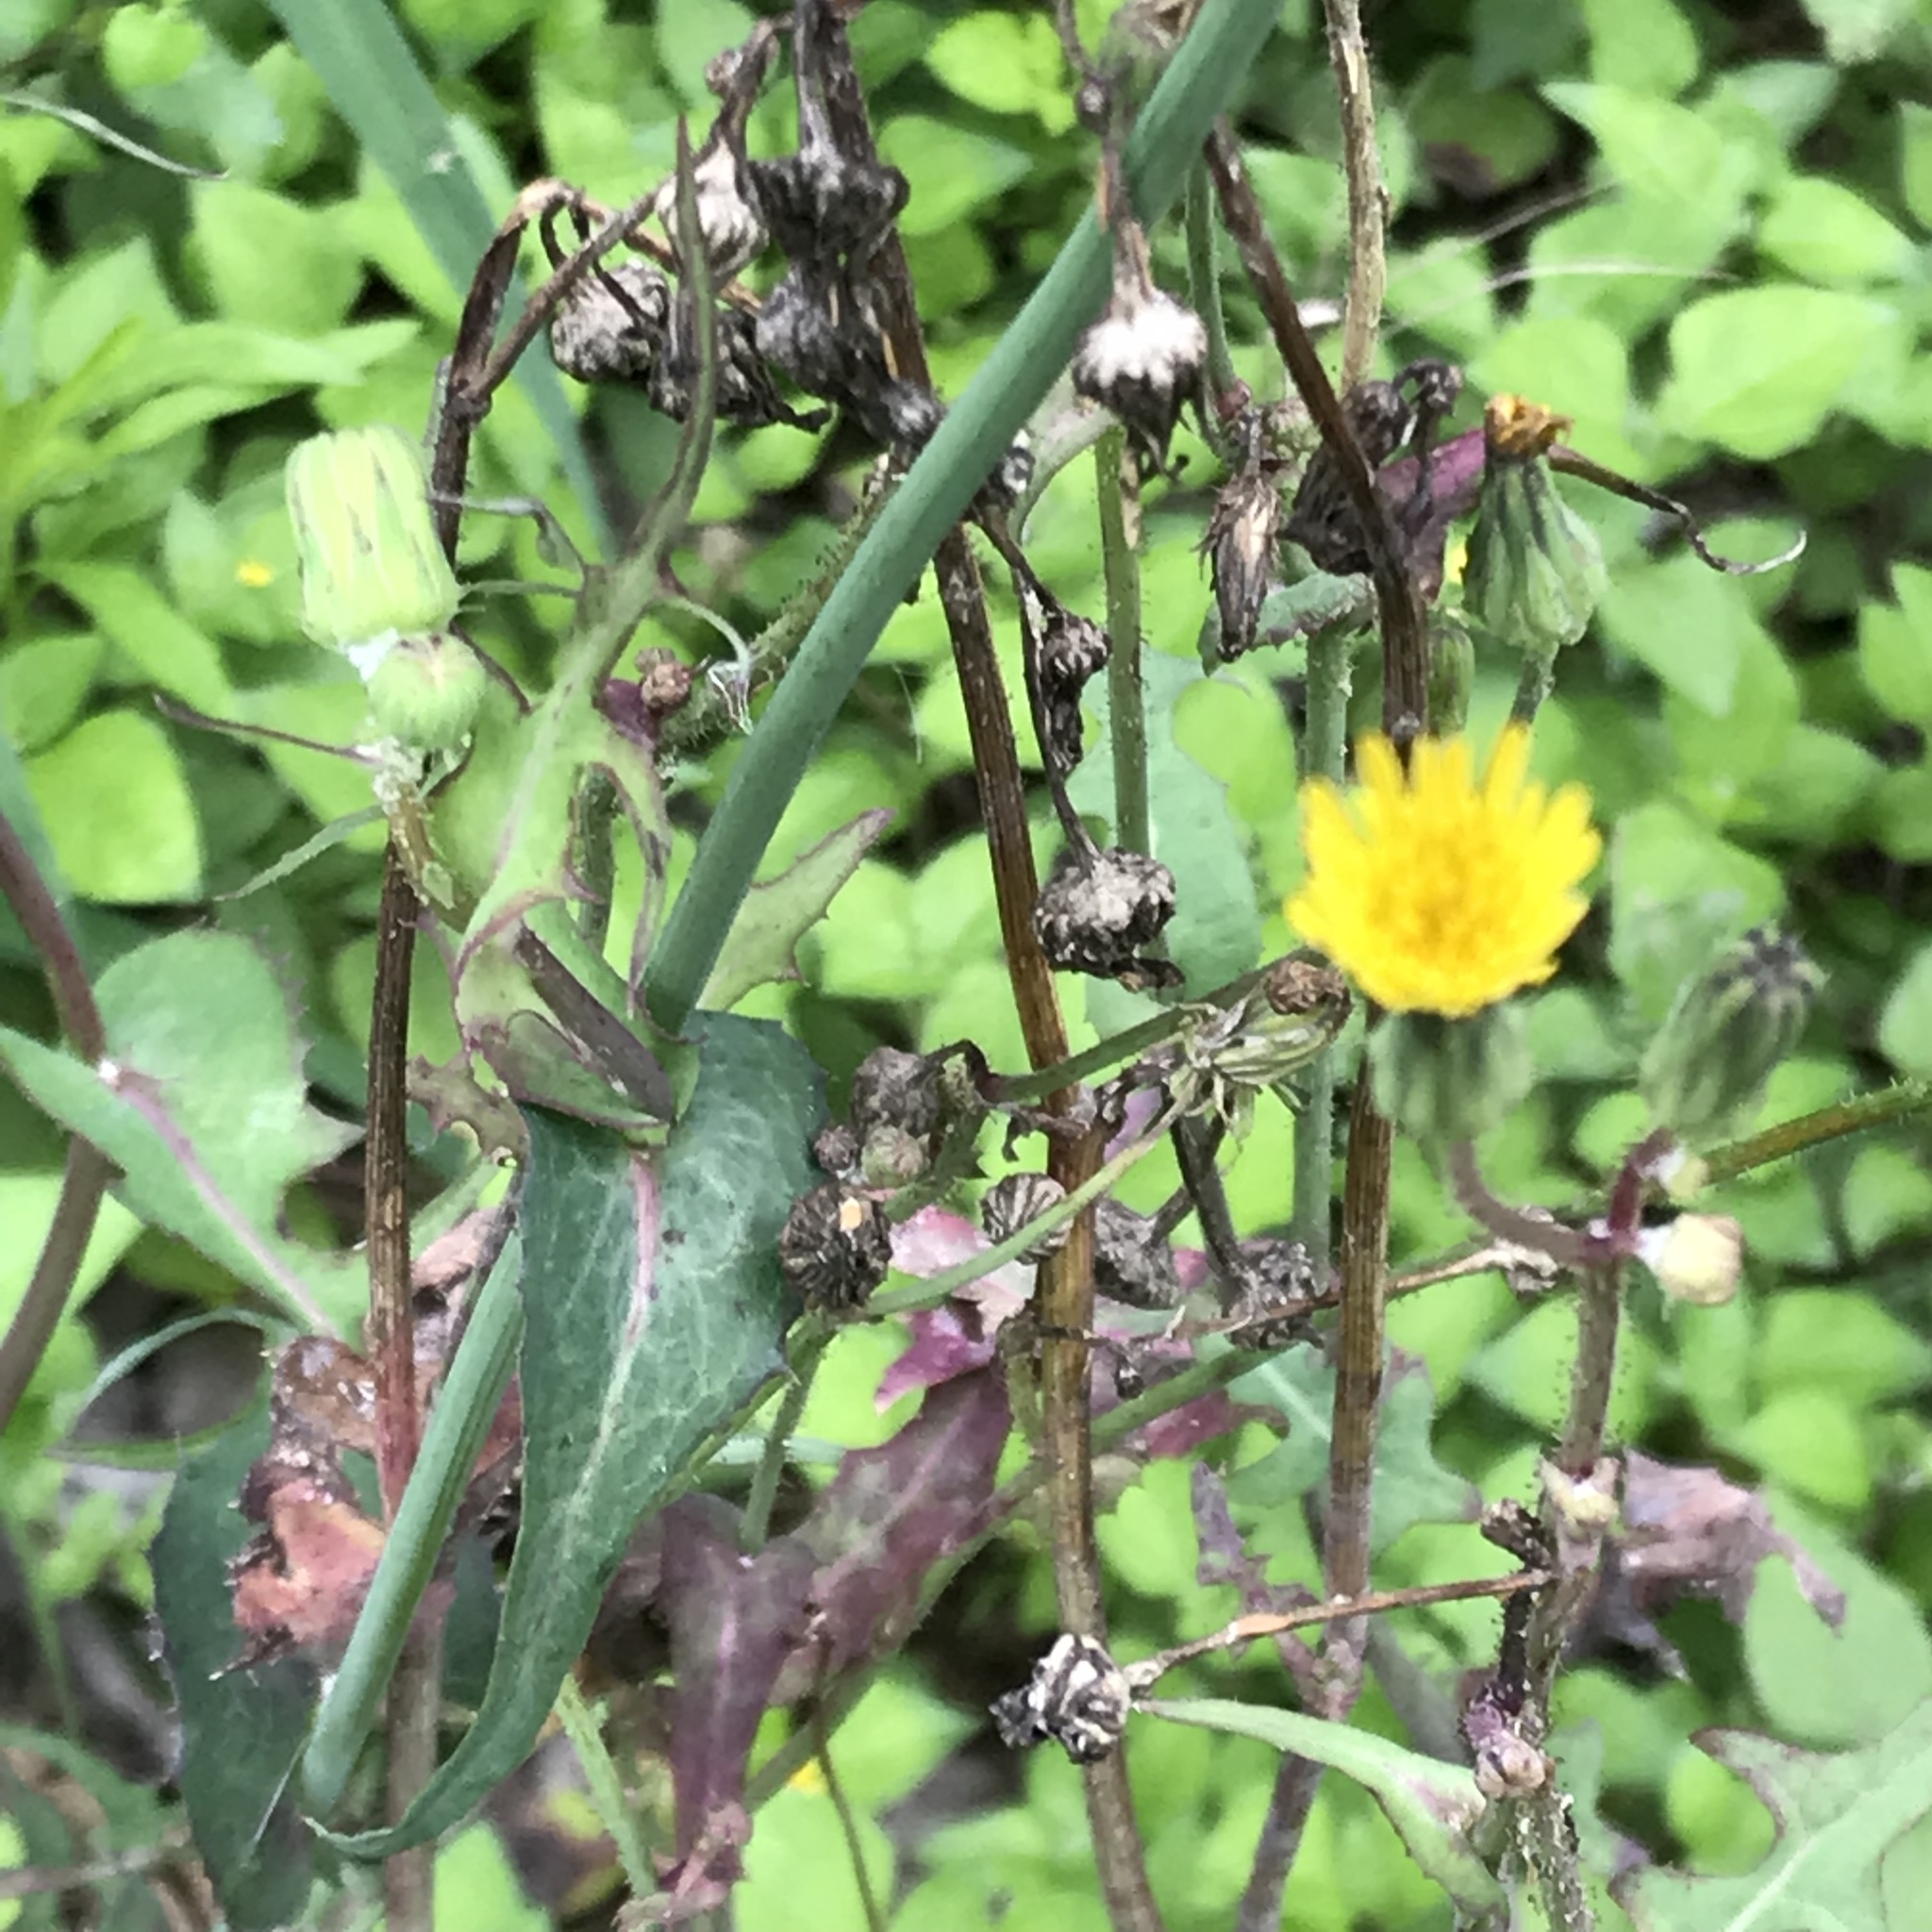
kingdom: Plantae
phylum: Tracheophyta
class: Magnoliopsida
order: Asterales
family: Asteraceae
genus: Sonchus
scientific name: Sonchus oleraceus
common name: Common sowthistle
